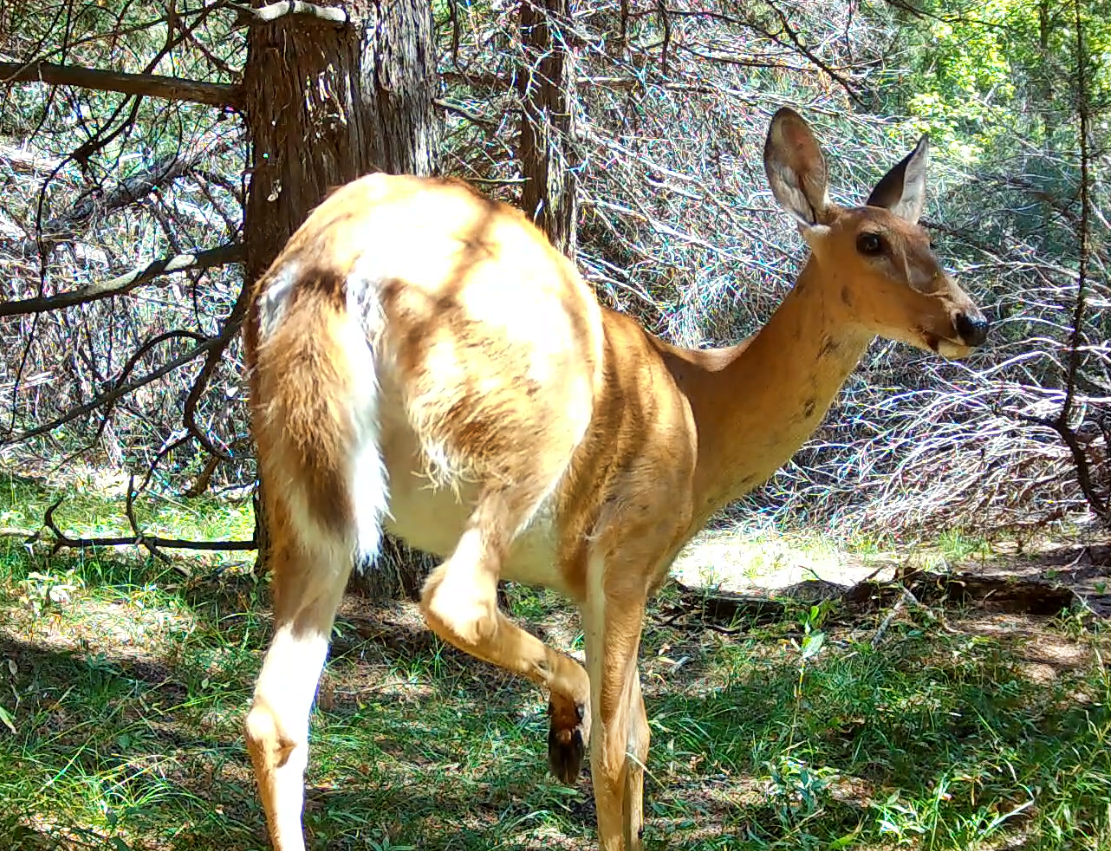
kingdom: Animalia
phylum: Chordata
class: Mammalia
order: Artiodactyla
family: Cervidae
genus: Odocoileus
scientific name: Odocoileus virginianus
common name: White-tailed deer
